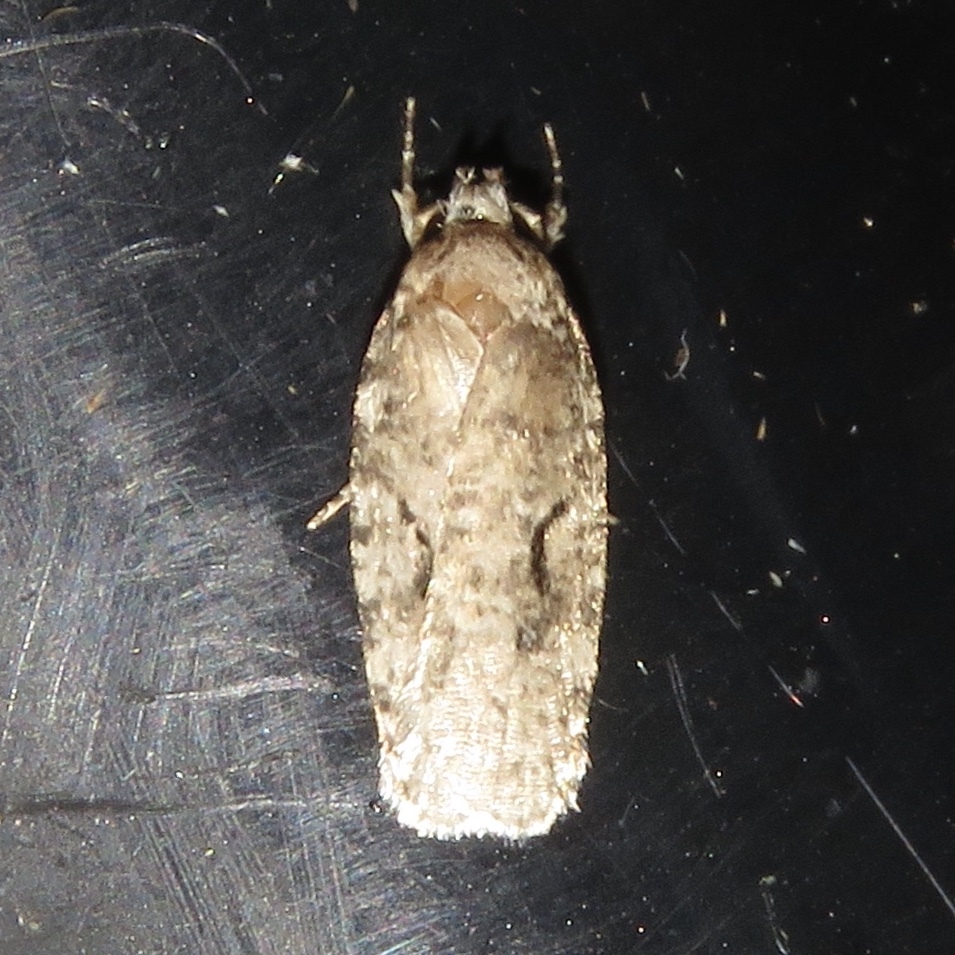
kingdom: Animalia
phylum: Arthropoda
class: Insecta
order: Lepidoptera
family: Depressariidae
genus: Agonopterix
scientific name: Agonopterix curvilineella
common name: Curved-line agonopterix moth
